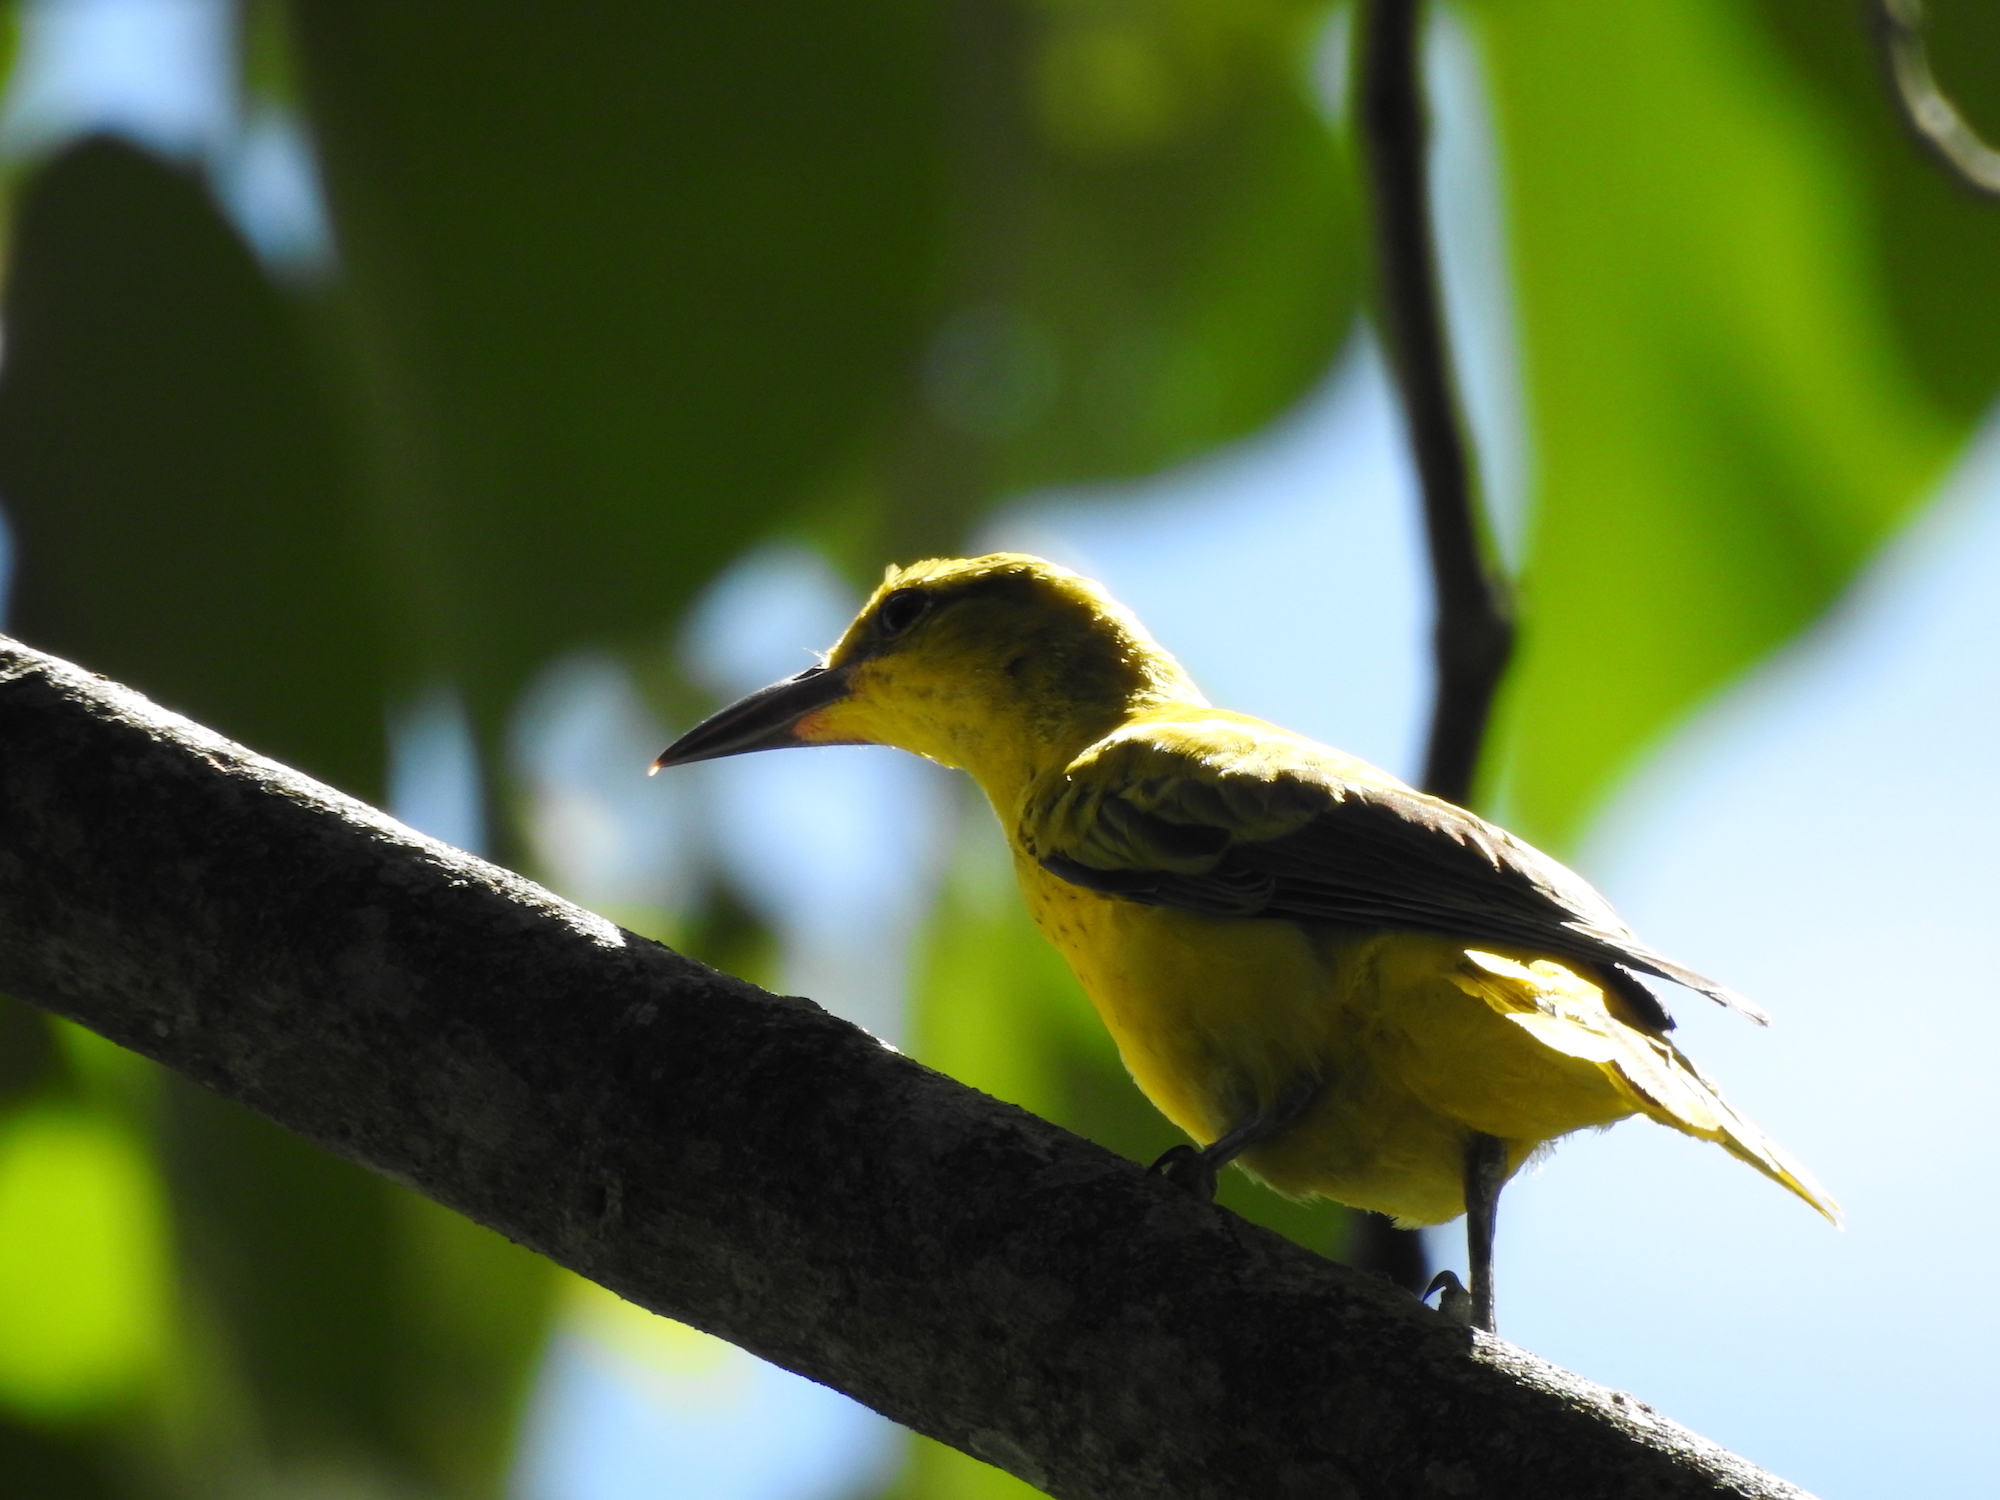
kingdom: Animalia
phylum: Chordata
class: Aves
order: Passeriformes
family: Oriolidae
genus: Oriolus
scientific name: Oriolus chinensis
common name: Black-naped oriole
